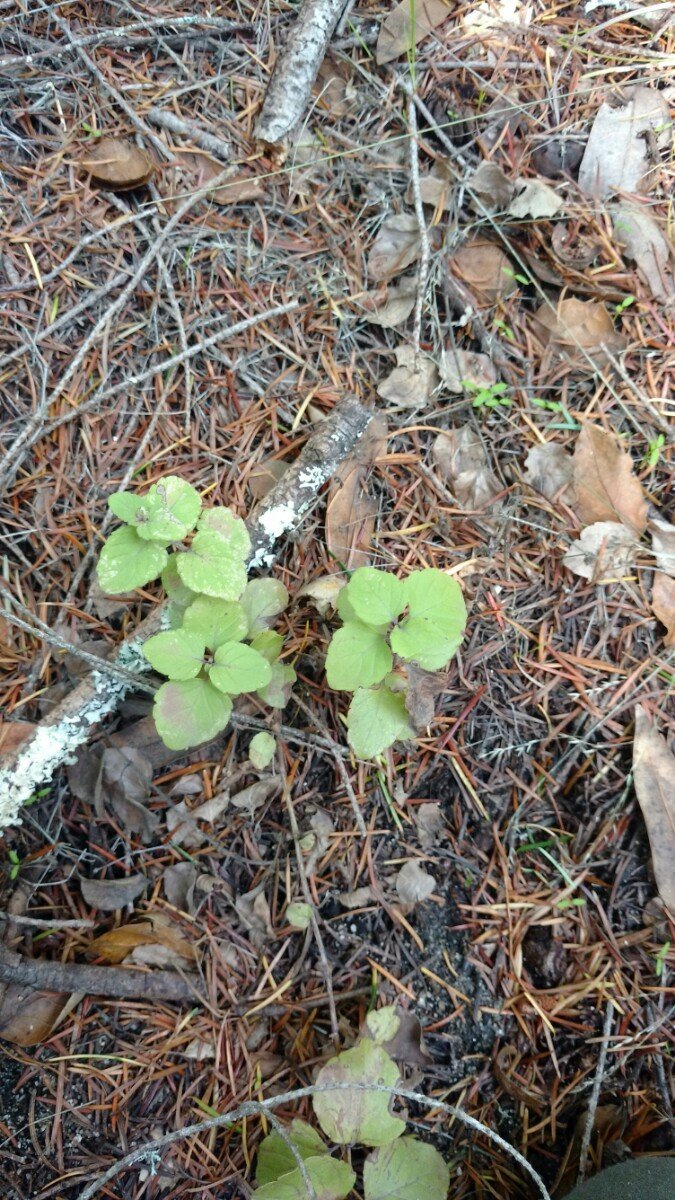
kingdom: Plantae
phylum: Tracheophyta
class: Magnoliopsida
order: Lamiales
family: Lamiaceae
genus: Micromeria
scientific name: Micromeria douglasii
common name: Yerba buena
